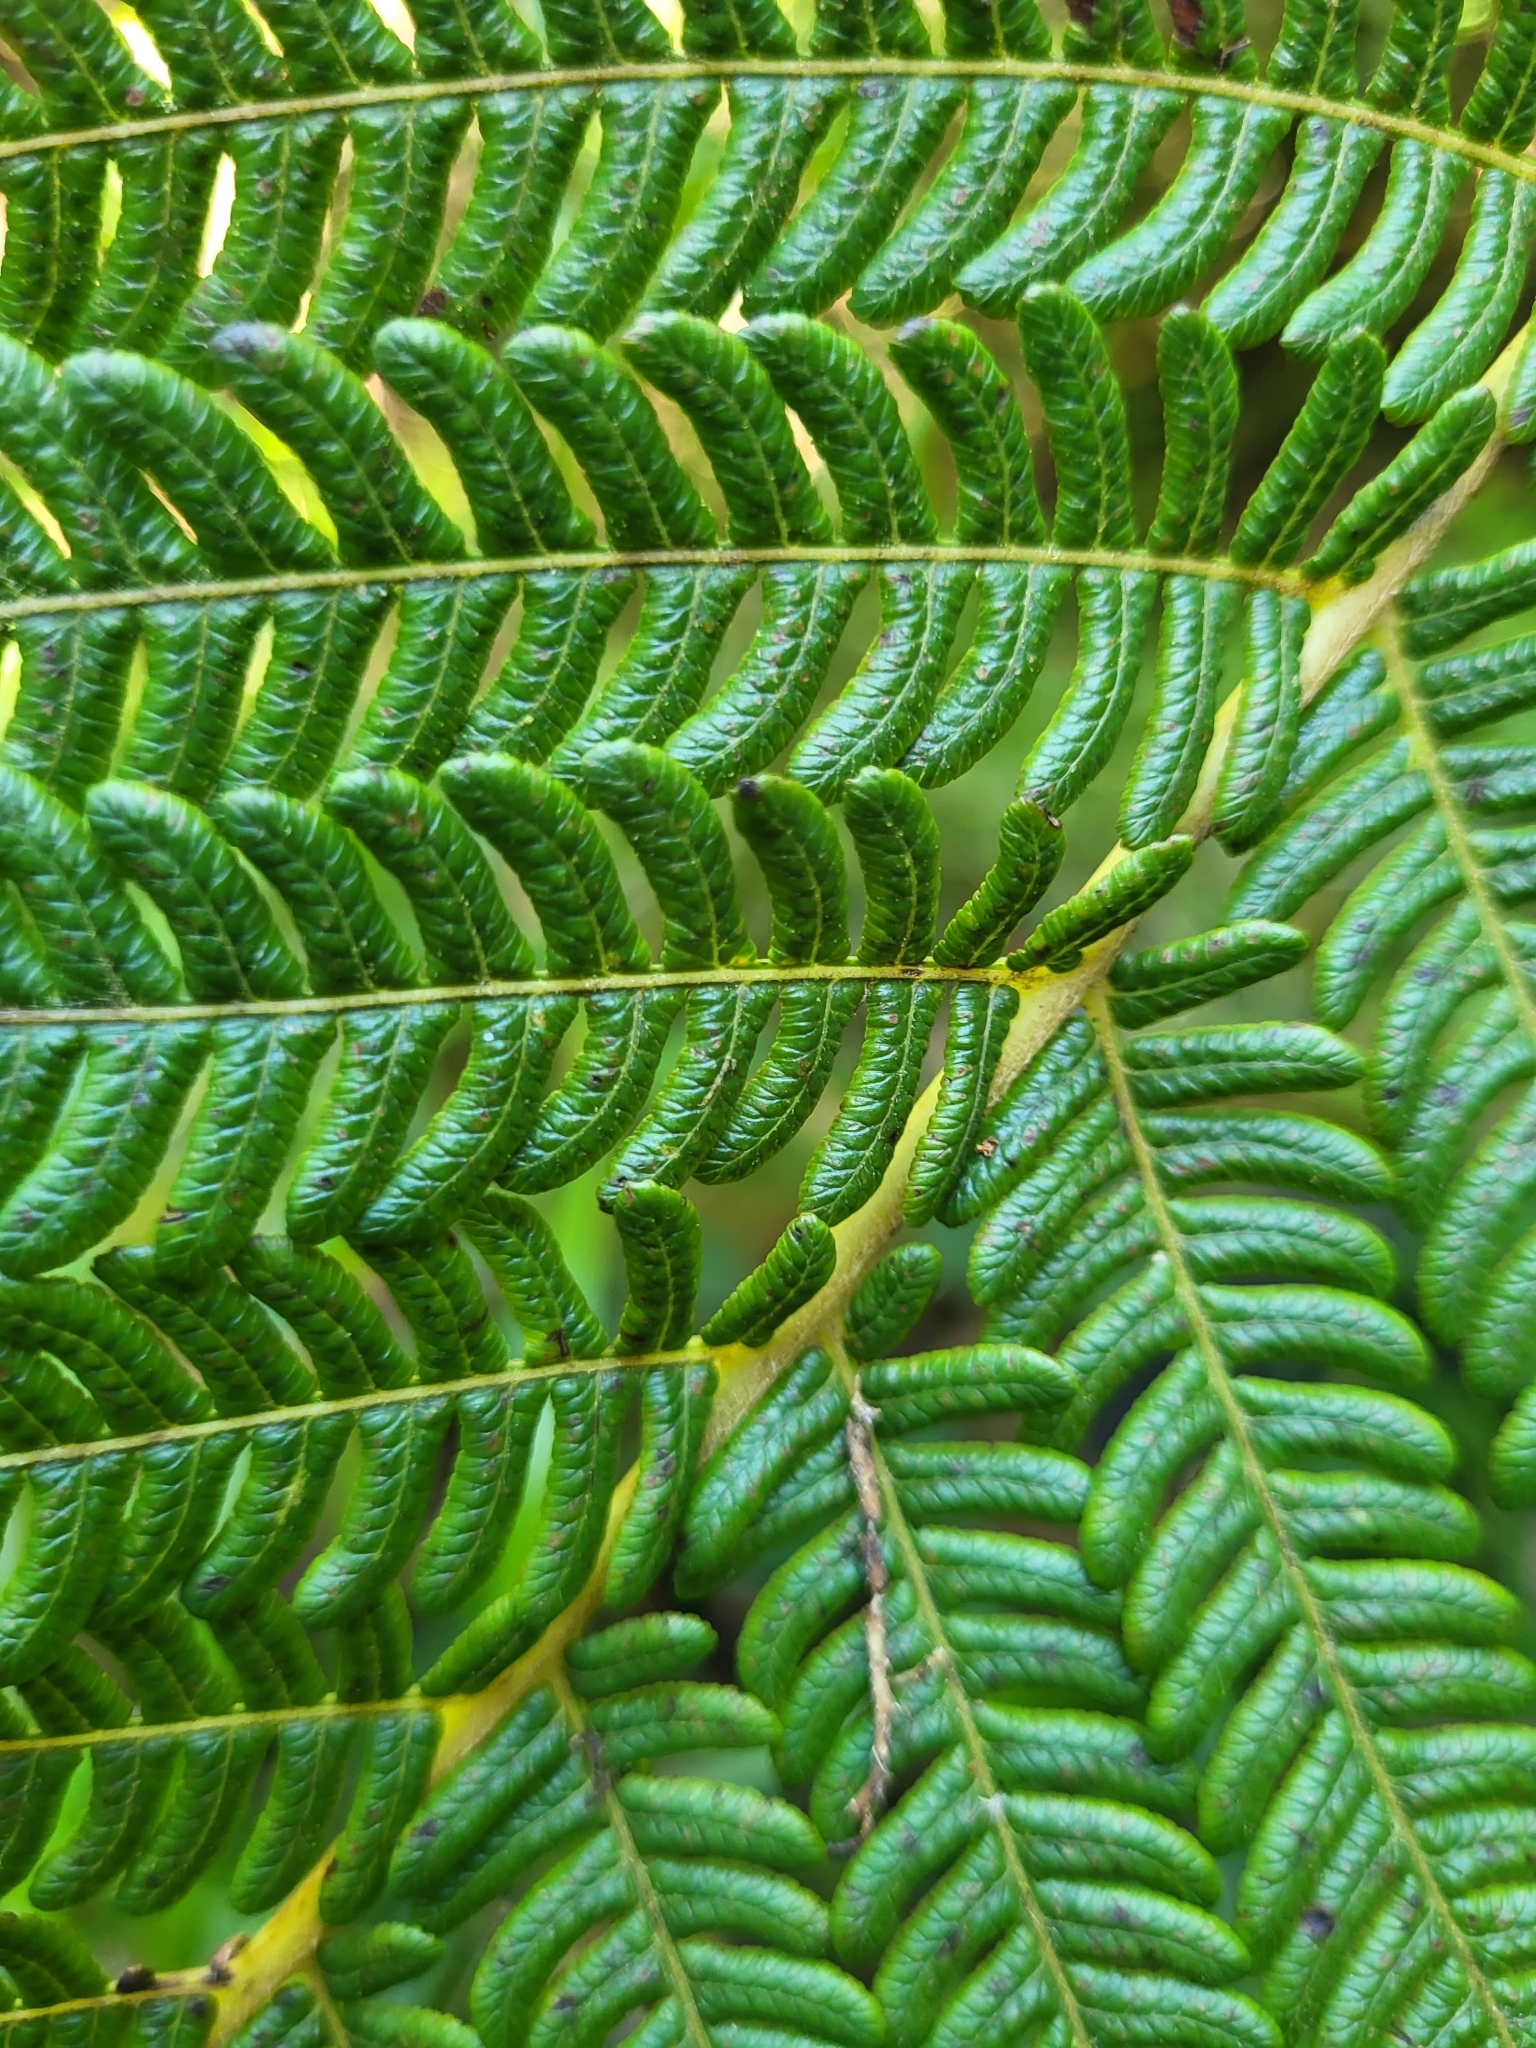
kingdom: Plantae
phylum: Tracheophyta
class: Polypodiopsida
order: Cyatheales
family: Cyatheaceae
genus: Sphaeropteris
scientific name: Sphaeropteris cooperi
